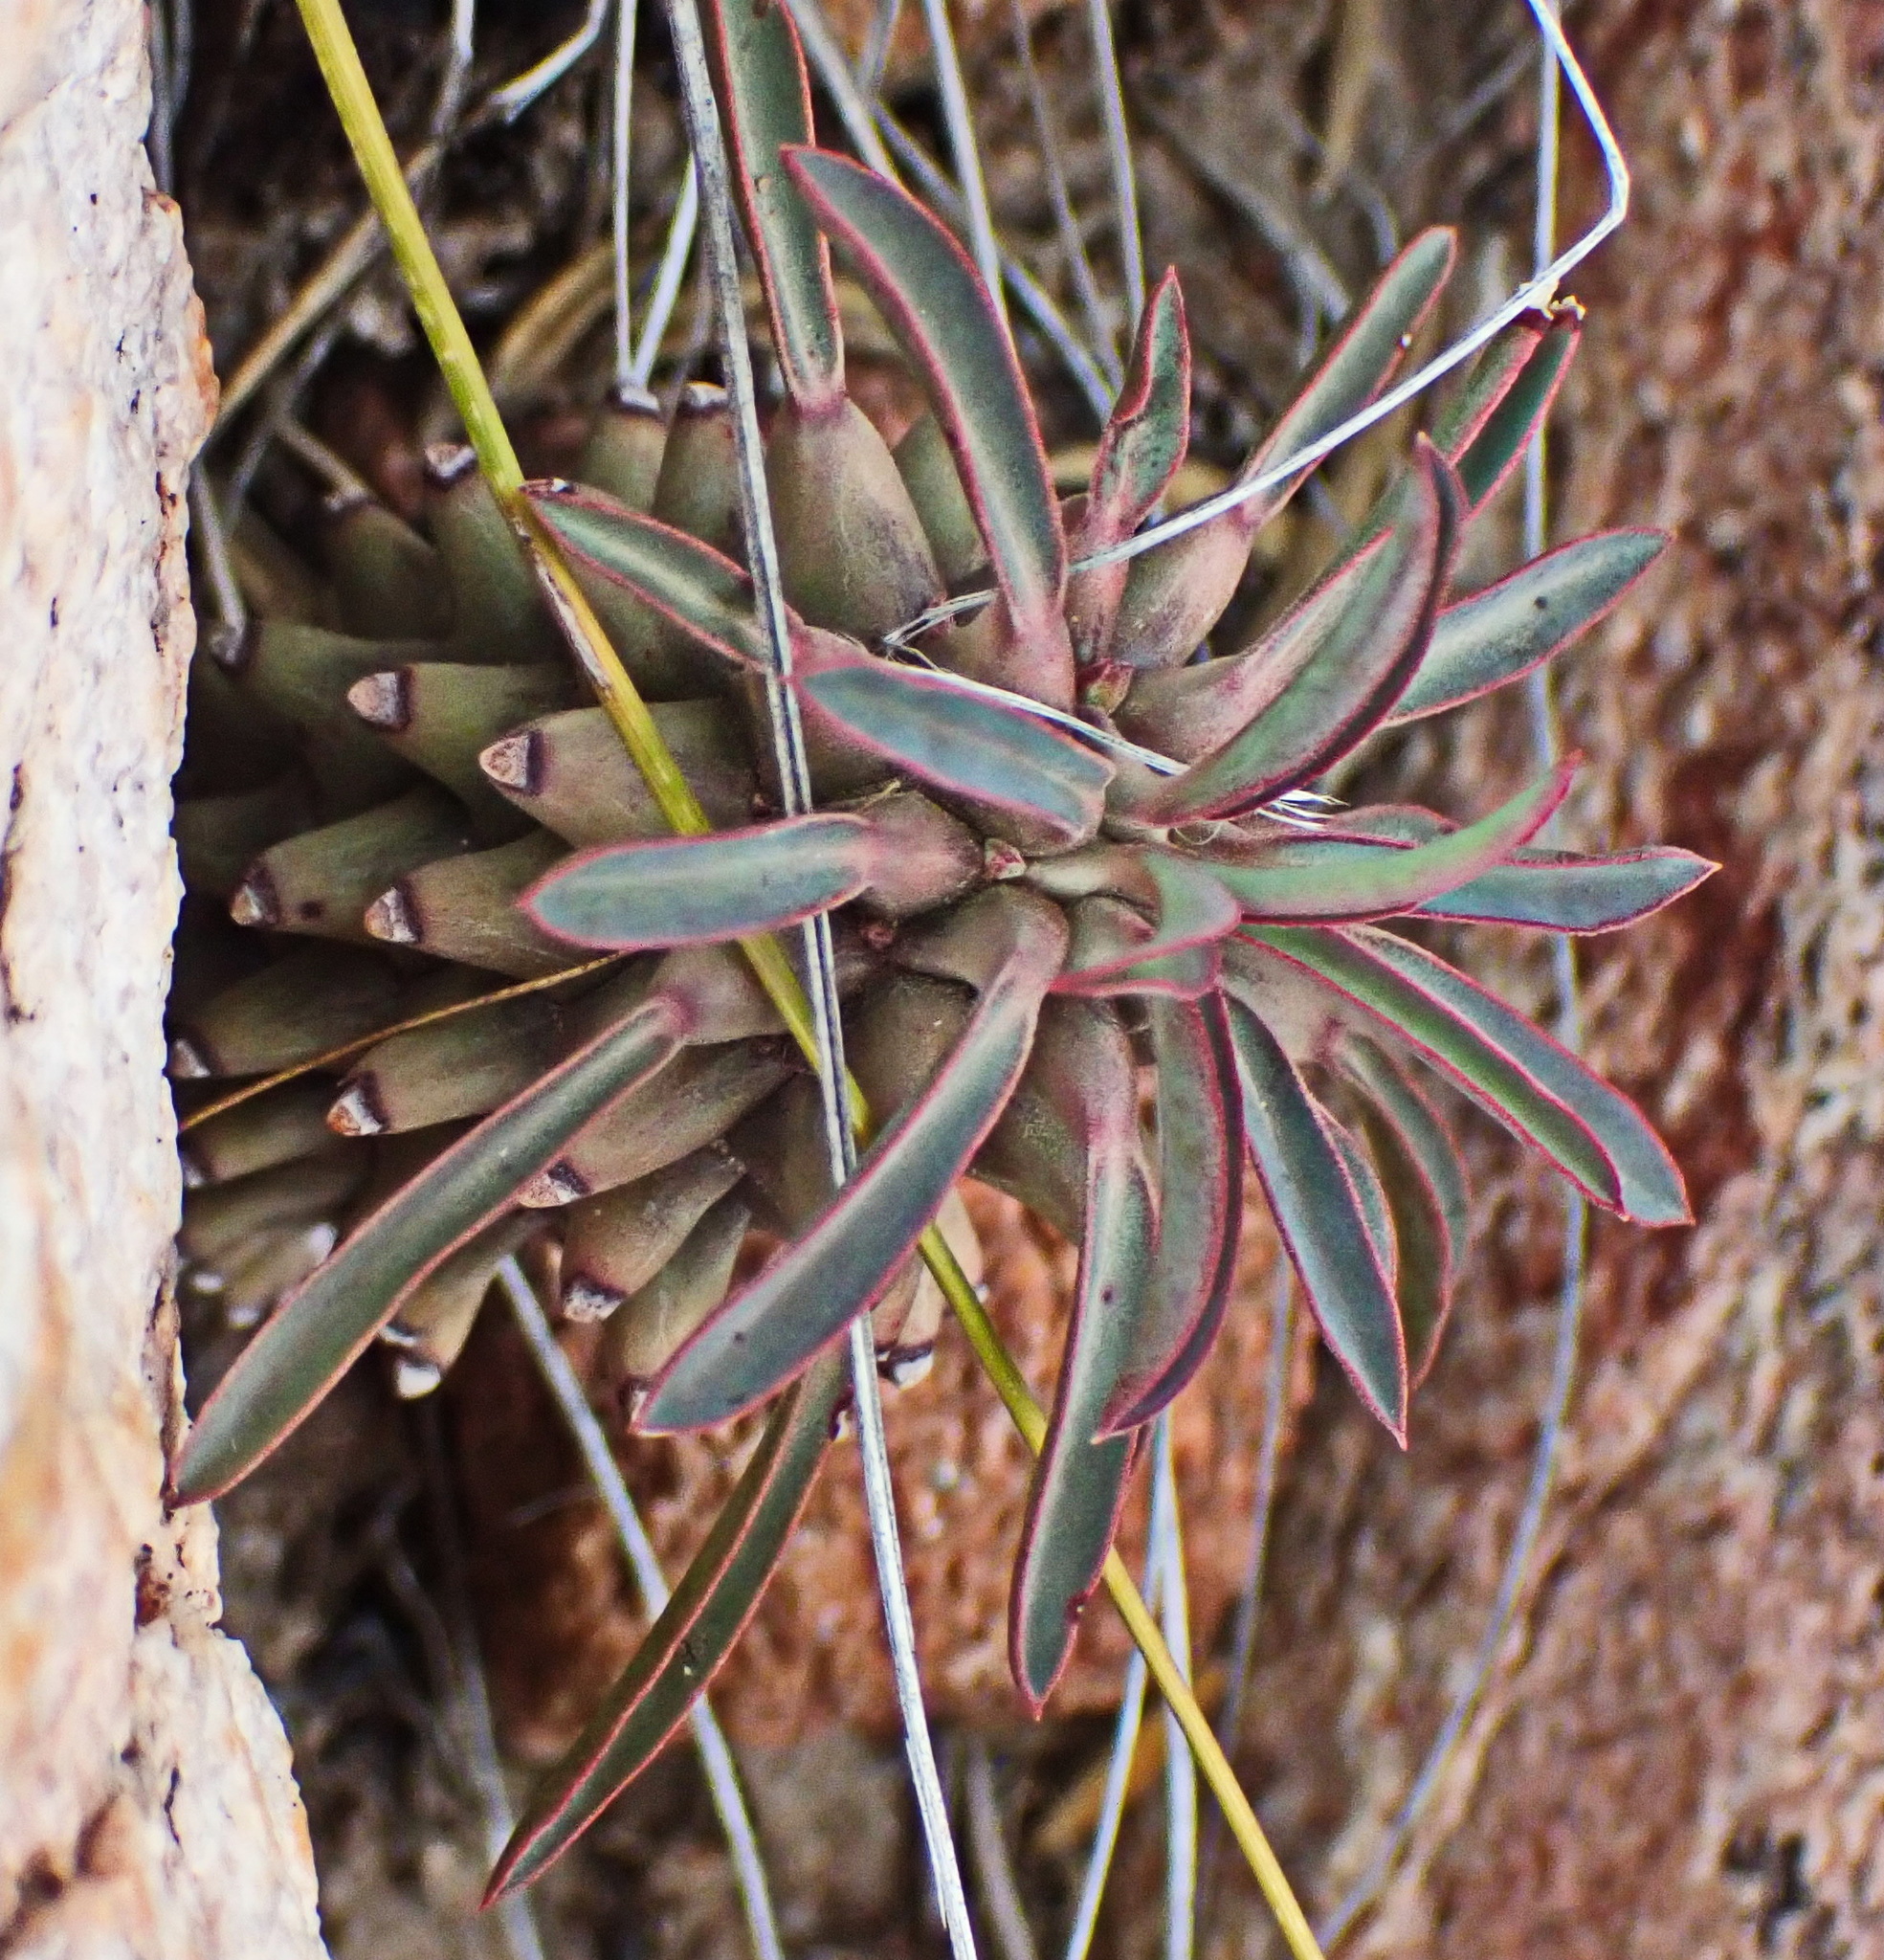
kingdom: Plantae
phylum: Tracheophyta
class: Magnoliopsida
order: Malpighiales
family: Euphorbiaceae
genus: Euphorbia
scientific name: Euphorbia clandestina
